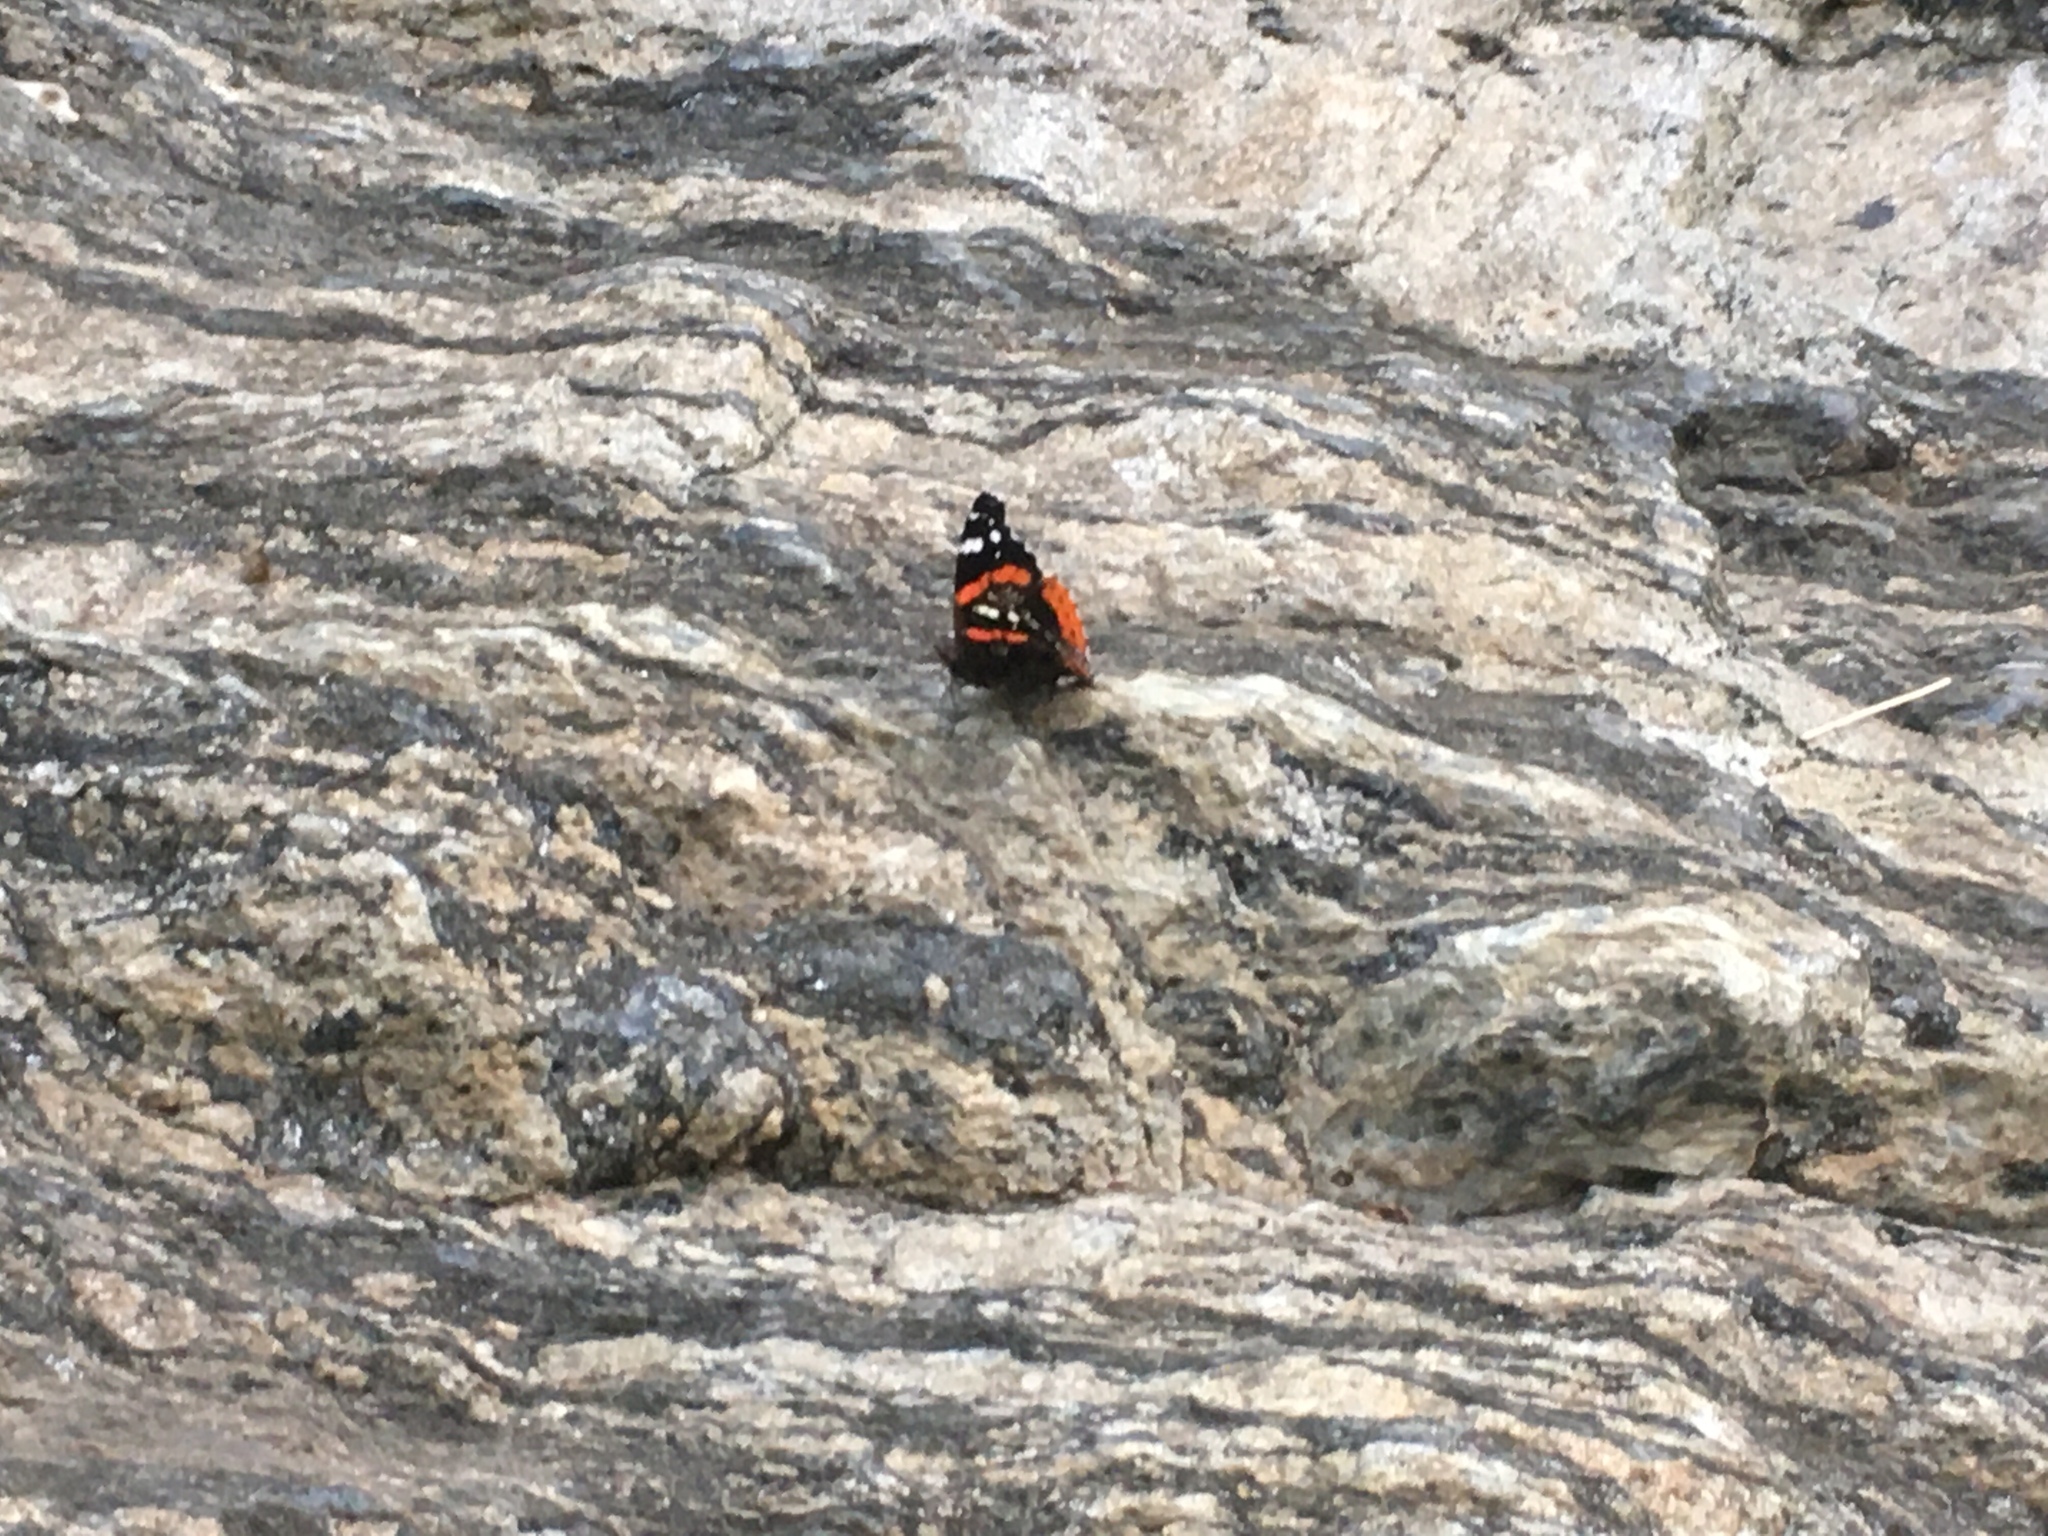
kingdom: Animalia
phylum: Arthropoda
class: Insecta
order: Lepidoptera
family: Nymphalidae
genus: Vanessa
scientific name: Vanessa atalanta
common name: Red admiral
